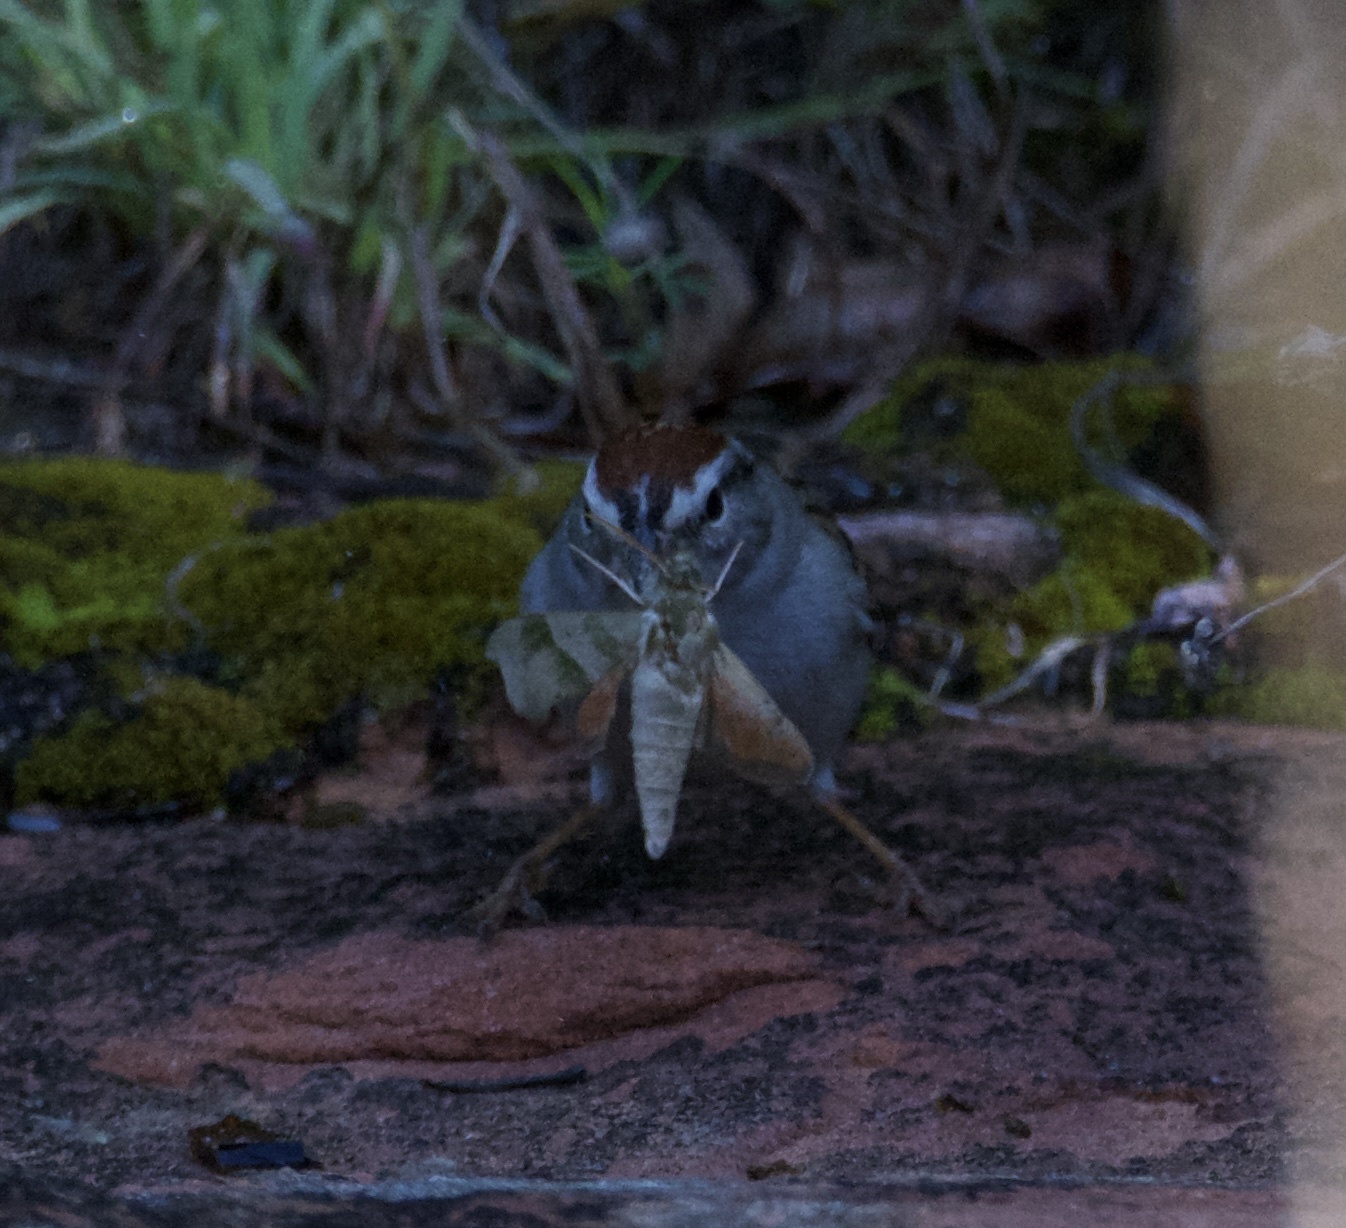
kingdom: Animalia
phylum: Chordata
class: Aves
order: Passeriformes
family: Passerellidae
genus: Spizella
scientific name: Spizella passerina
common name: Chipping sparrow
